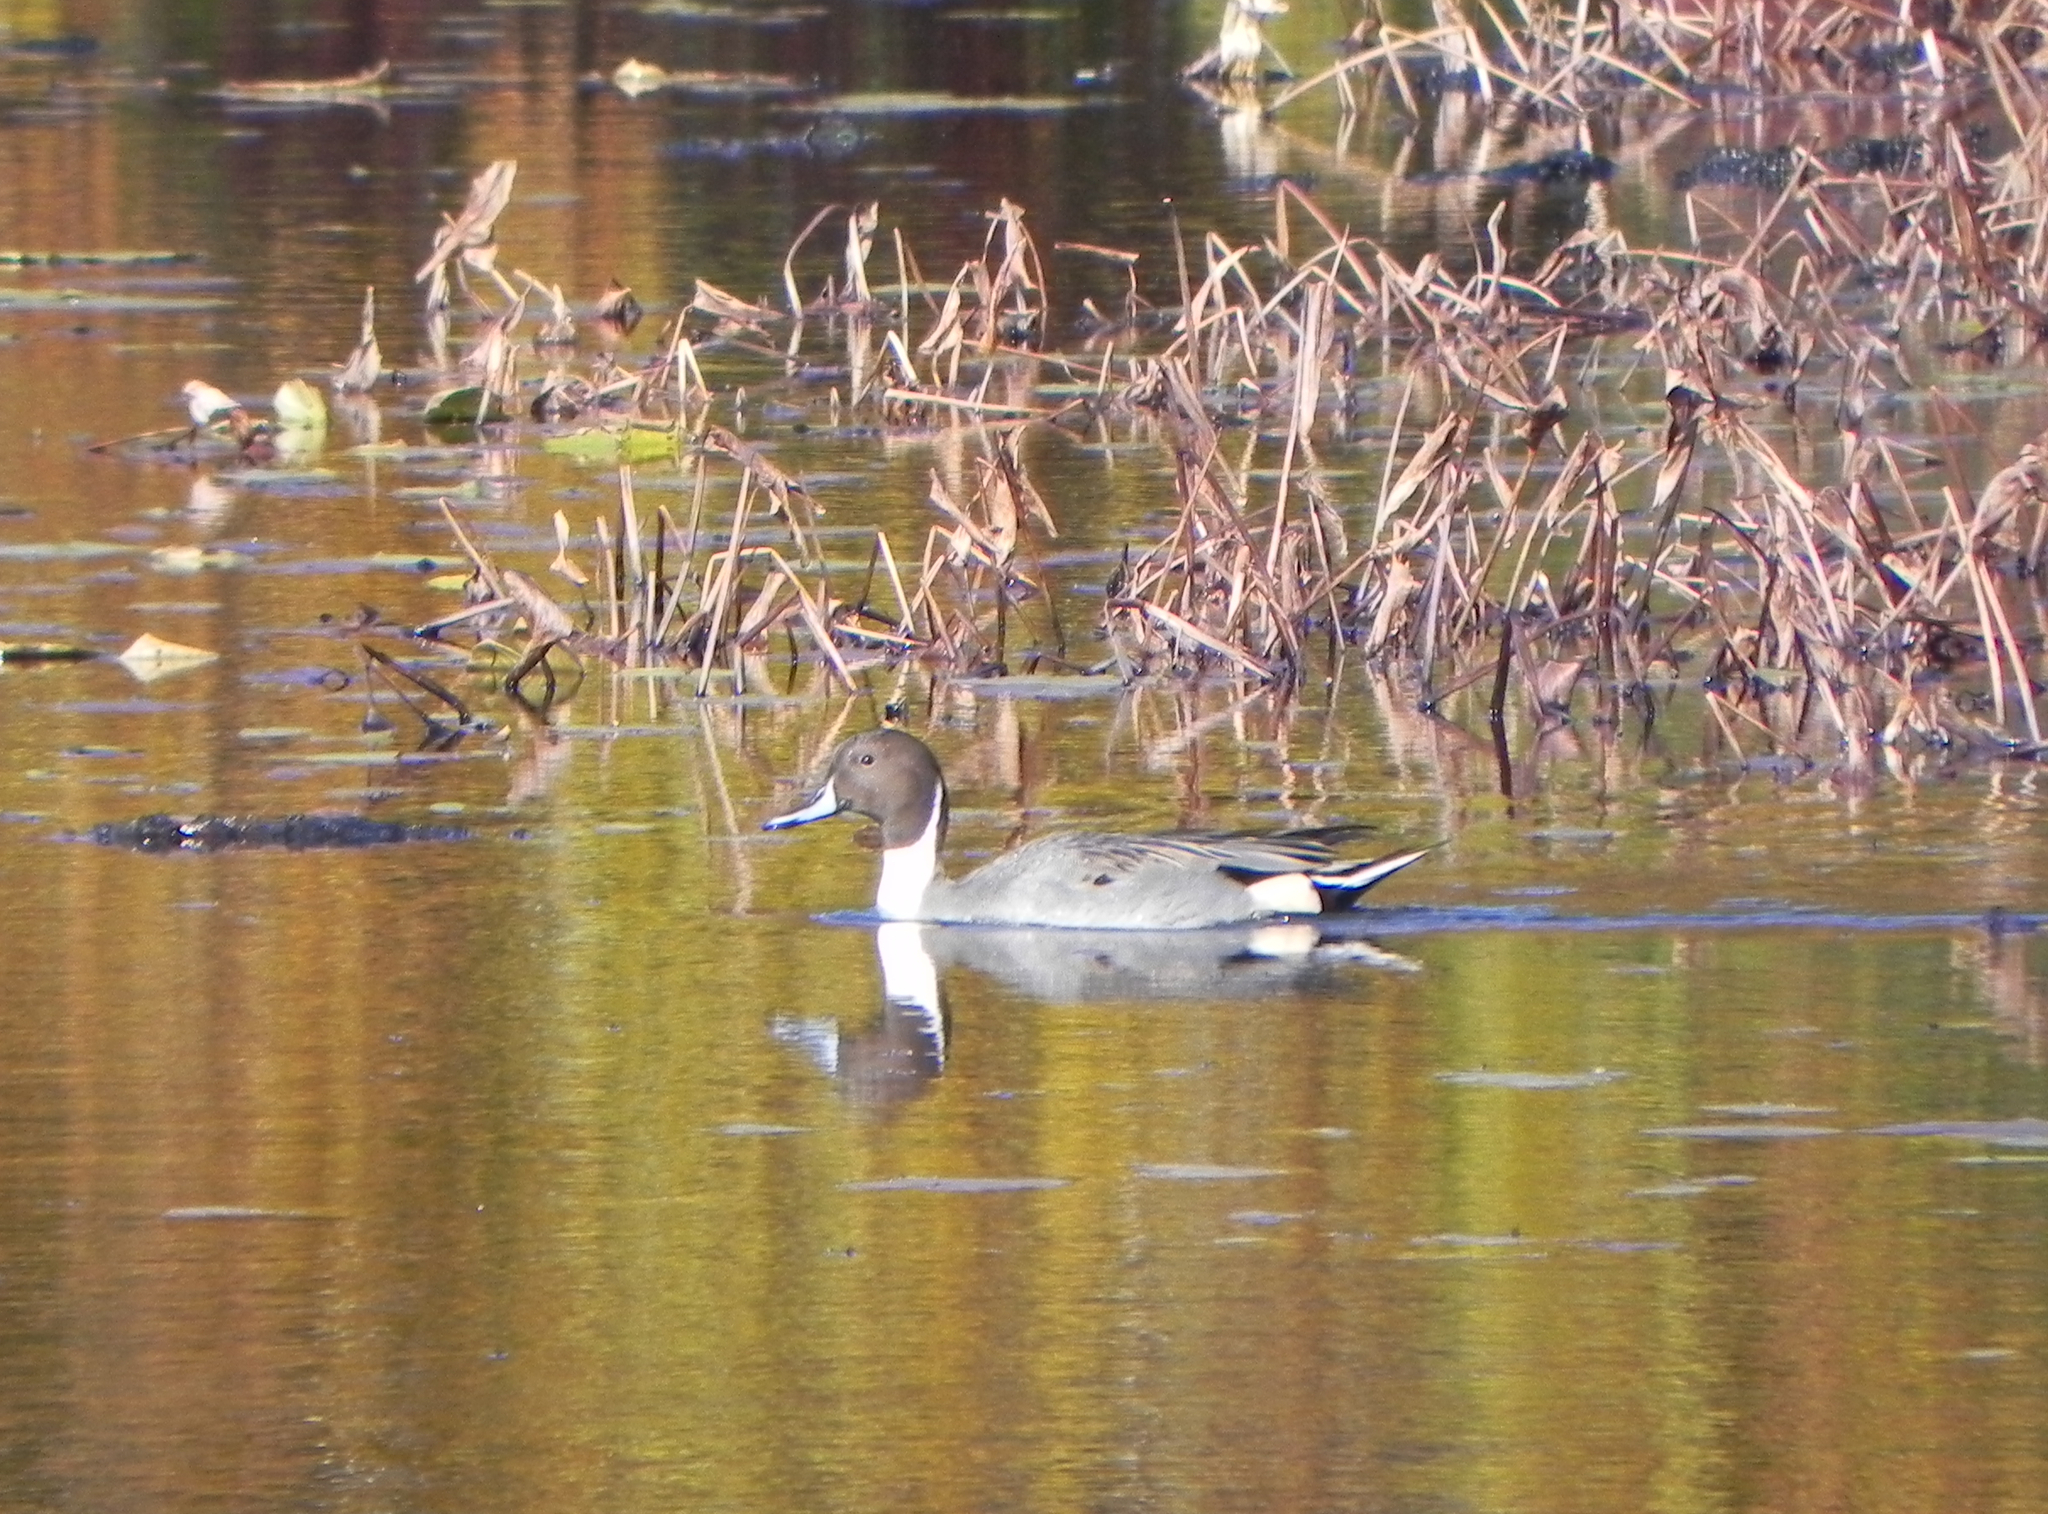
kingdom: Animalia
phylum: Chordata
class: Aves
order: Anseriformes
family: Anatidae
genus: Anas
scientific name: Anas acuta
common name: Northern pintail
